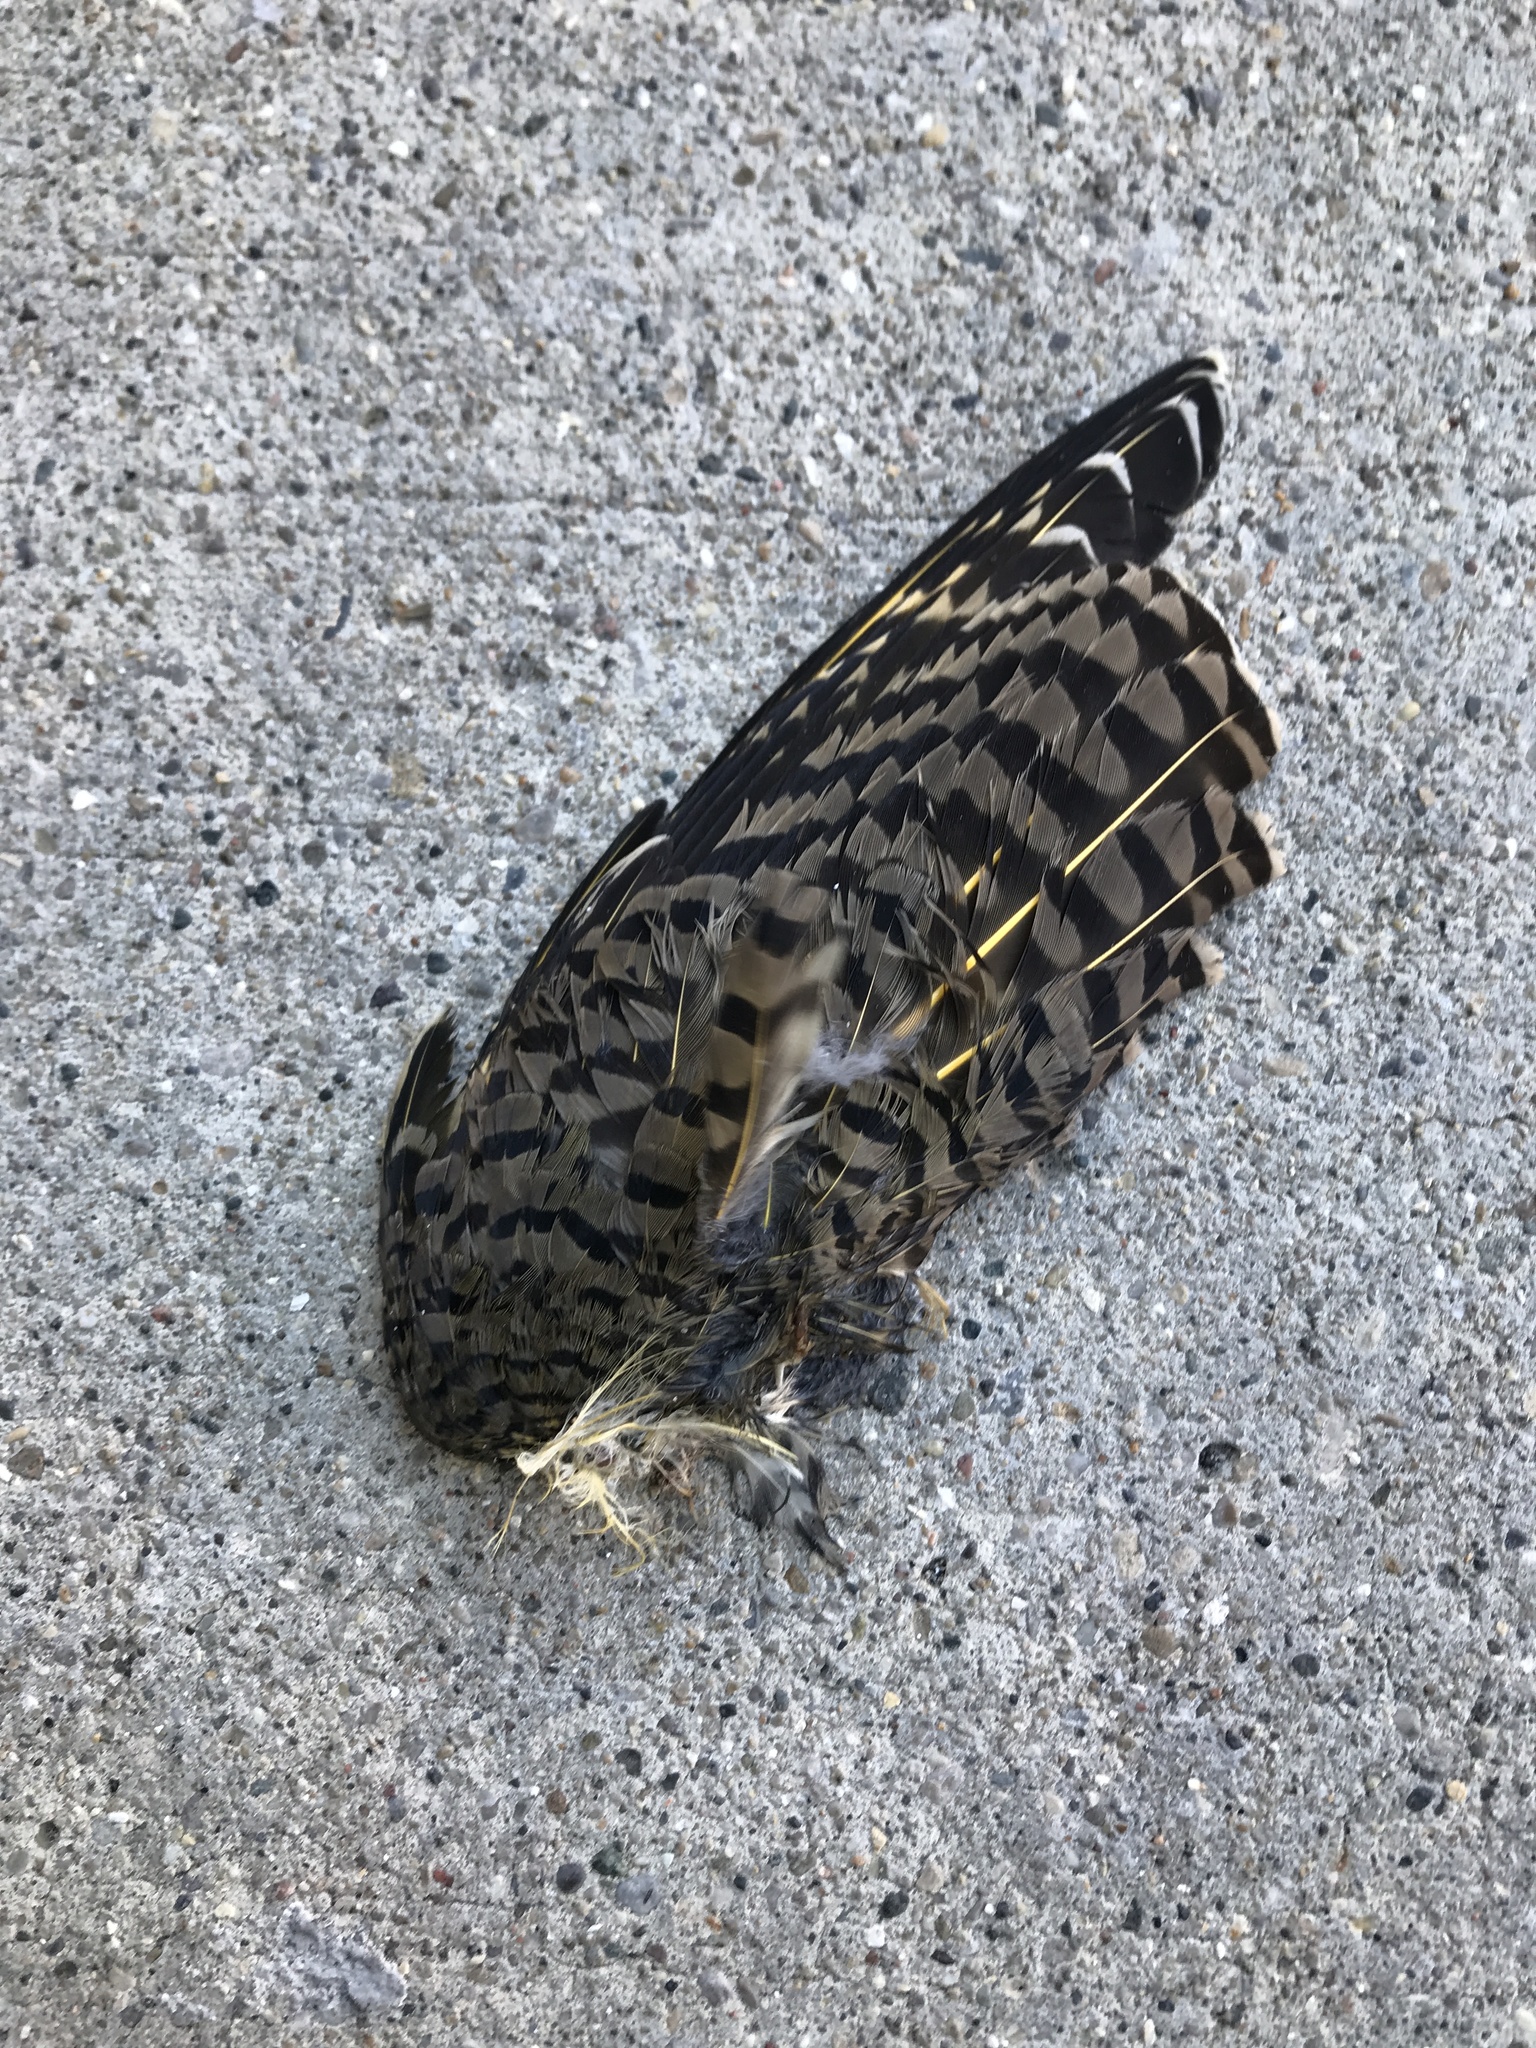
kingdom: Animalia
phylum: Chordata
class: Aves
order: Piciformes
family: Picidae
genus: Colaptes
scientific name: Colaptes auratus
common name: Northern flicker
